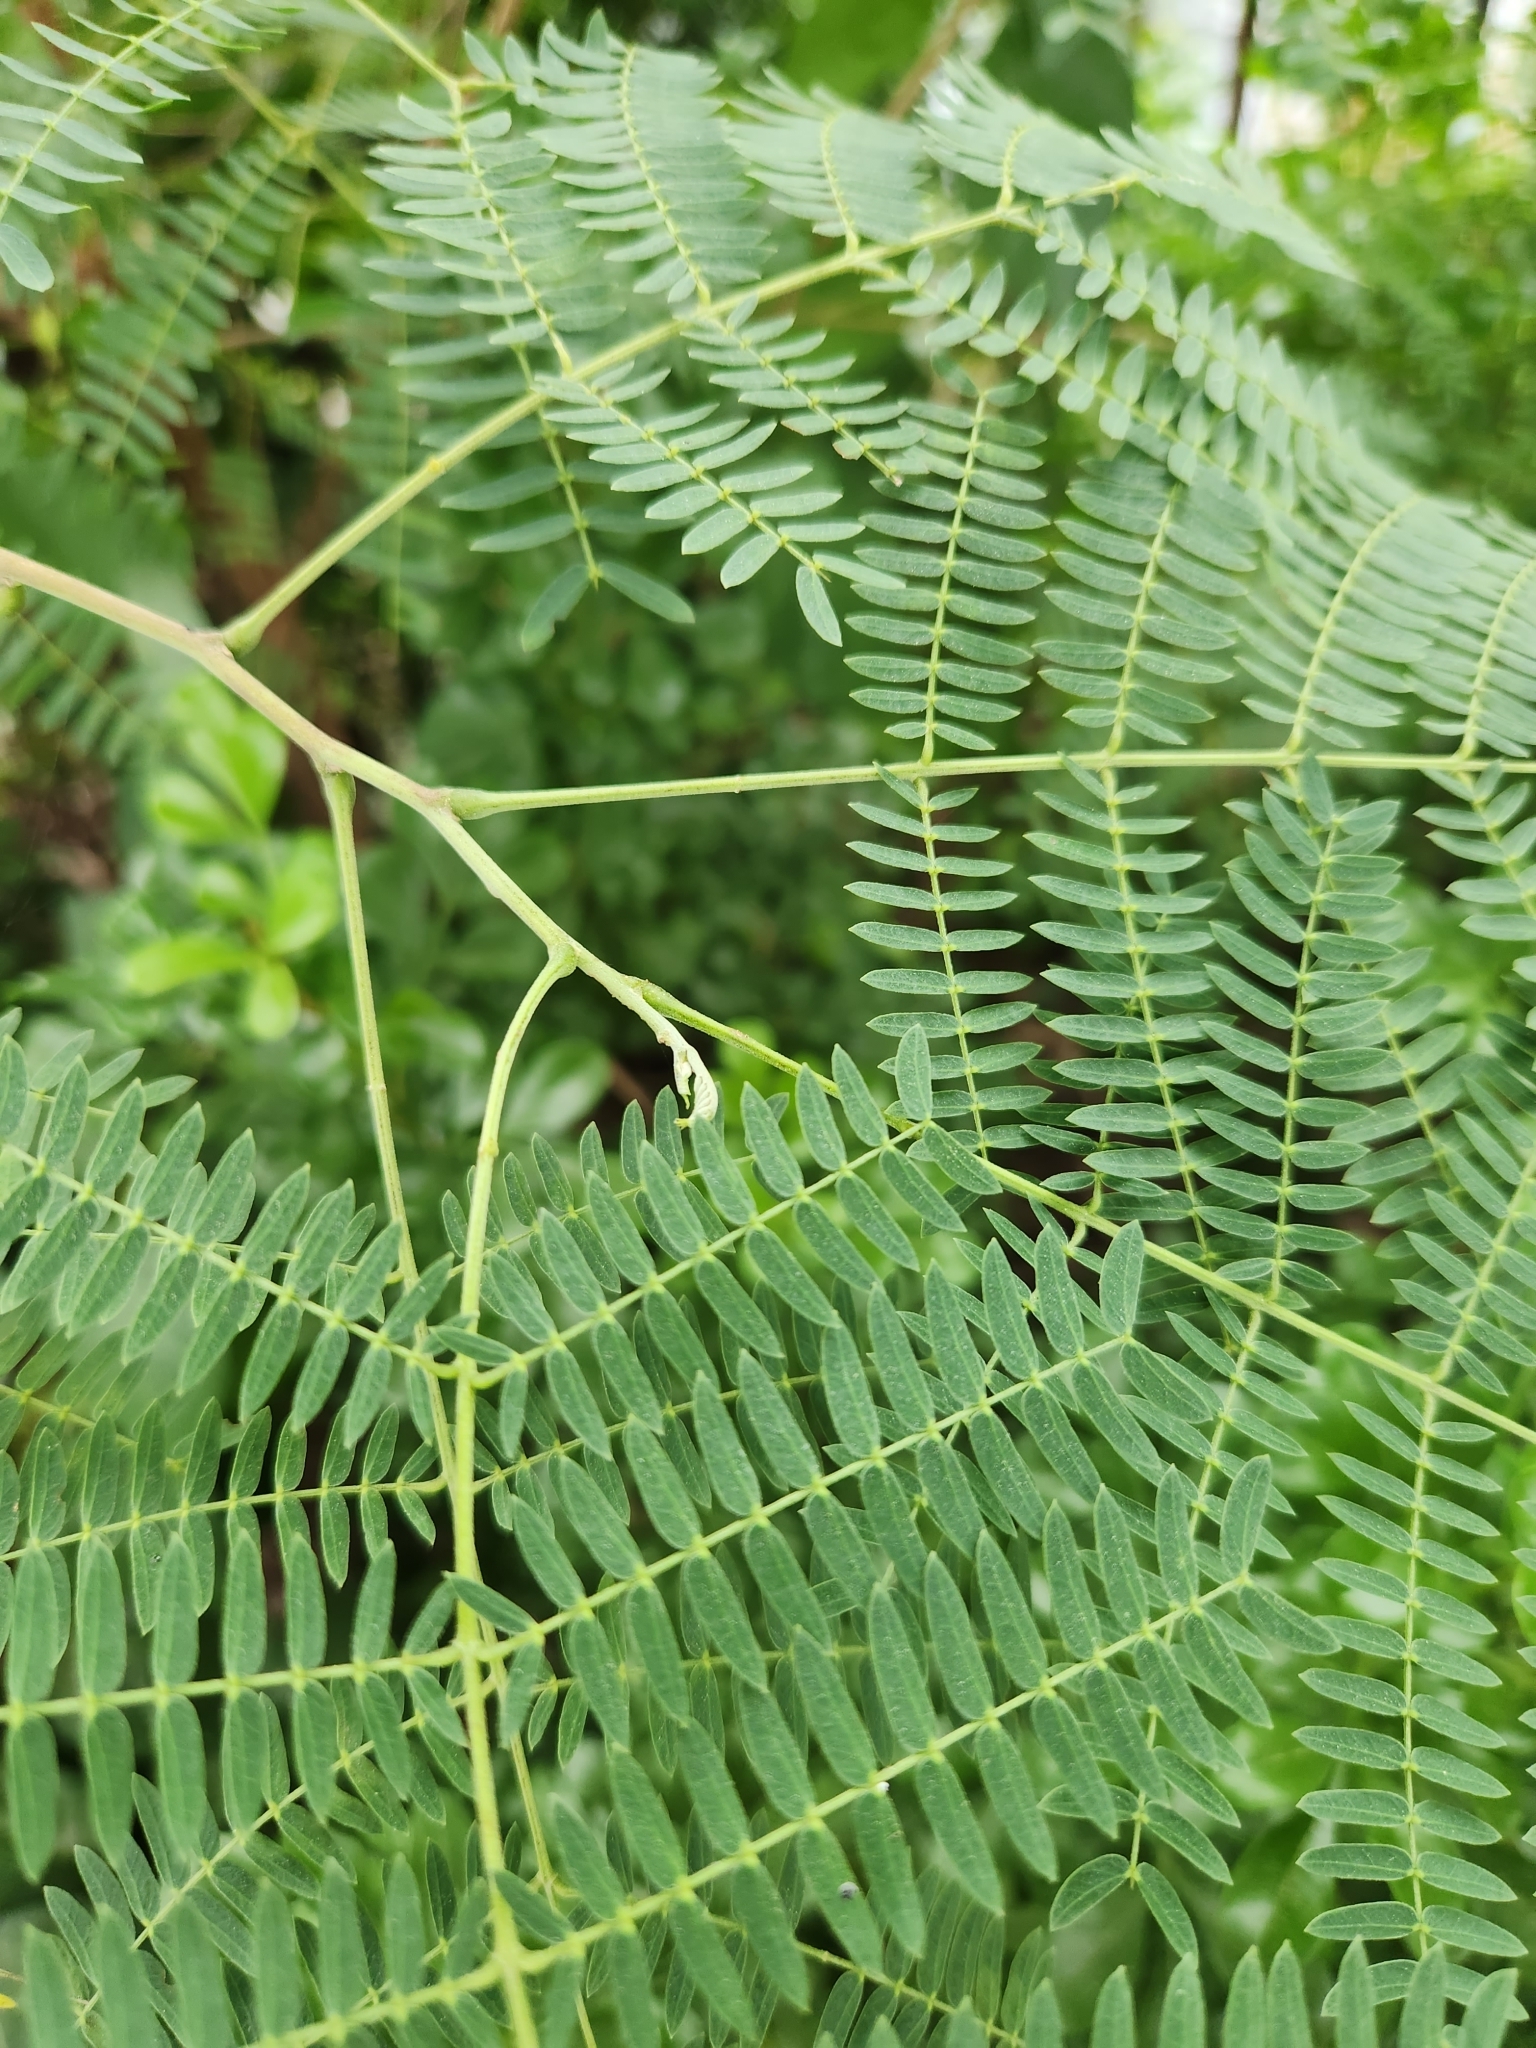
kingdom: Plantae
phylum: Tracheophyta
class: Magnoliopsida
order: Fabales
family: Fabaceae
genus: Leucaena
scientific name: Leucaena leucocephala
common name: White leadtree
